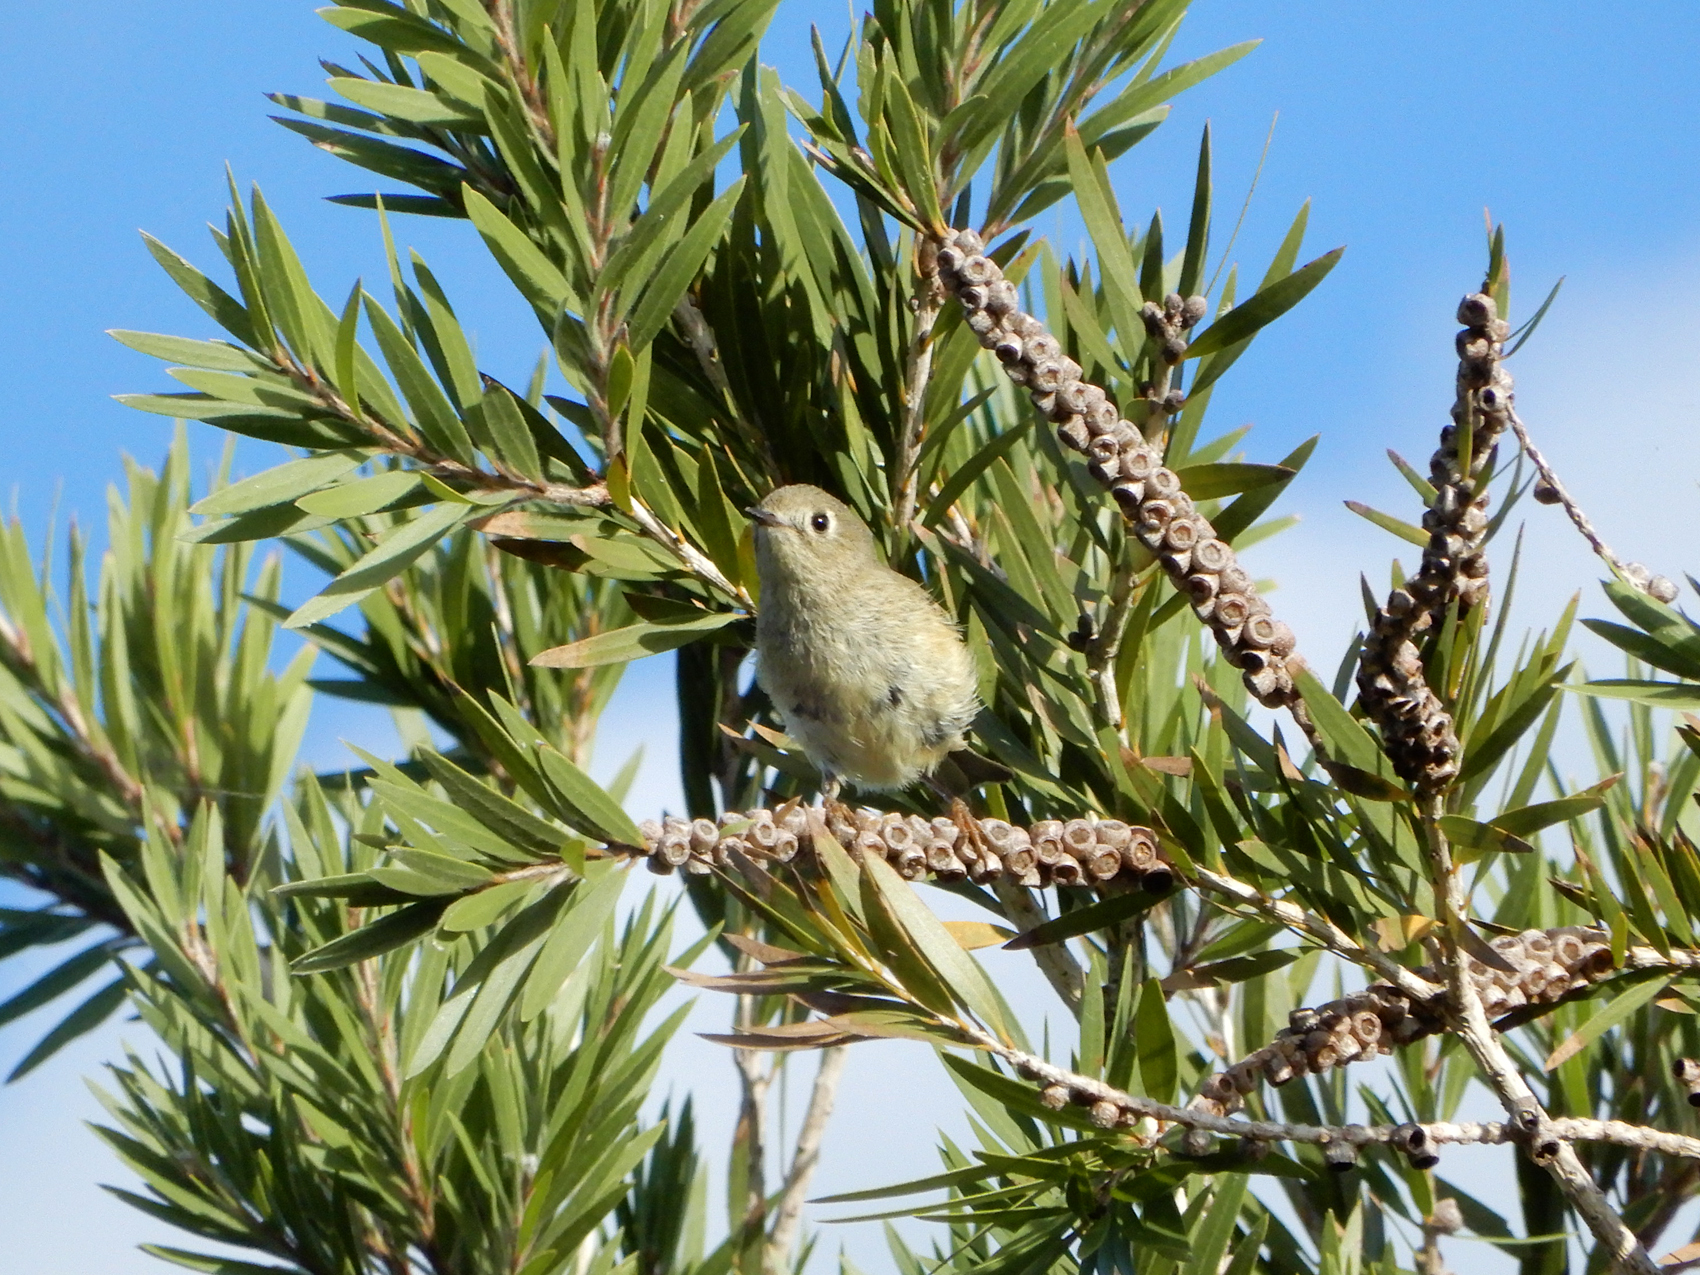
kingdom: Animalia
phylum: Chordata
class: Aves
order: Passeriformes
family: Regulidae
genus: Regulus
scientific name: Regulus calendula
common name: Ruby-crowned kinglet
